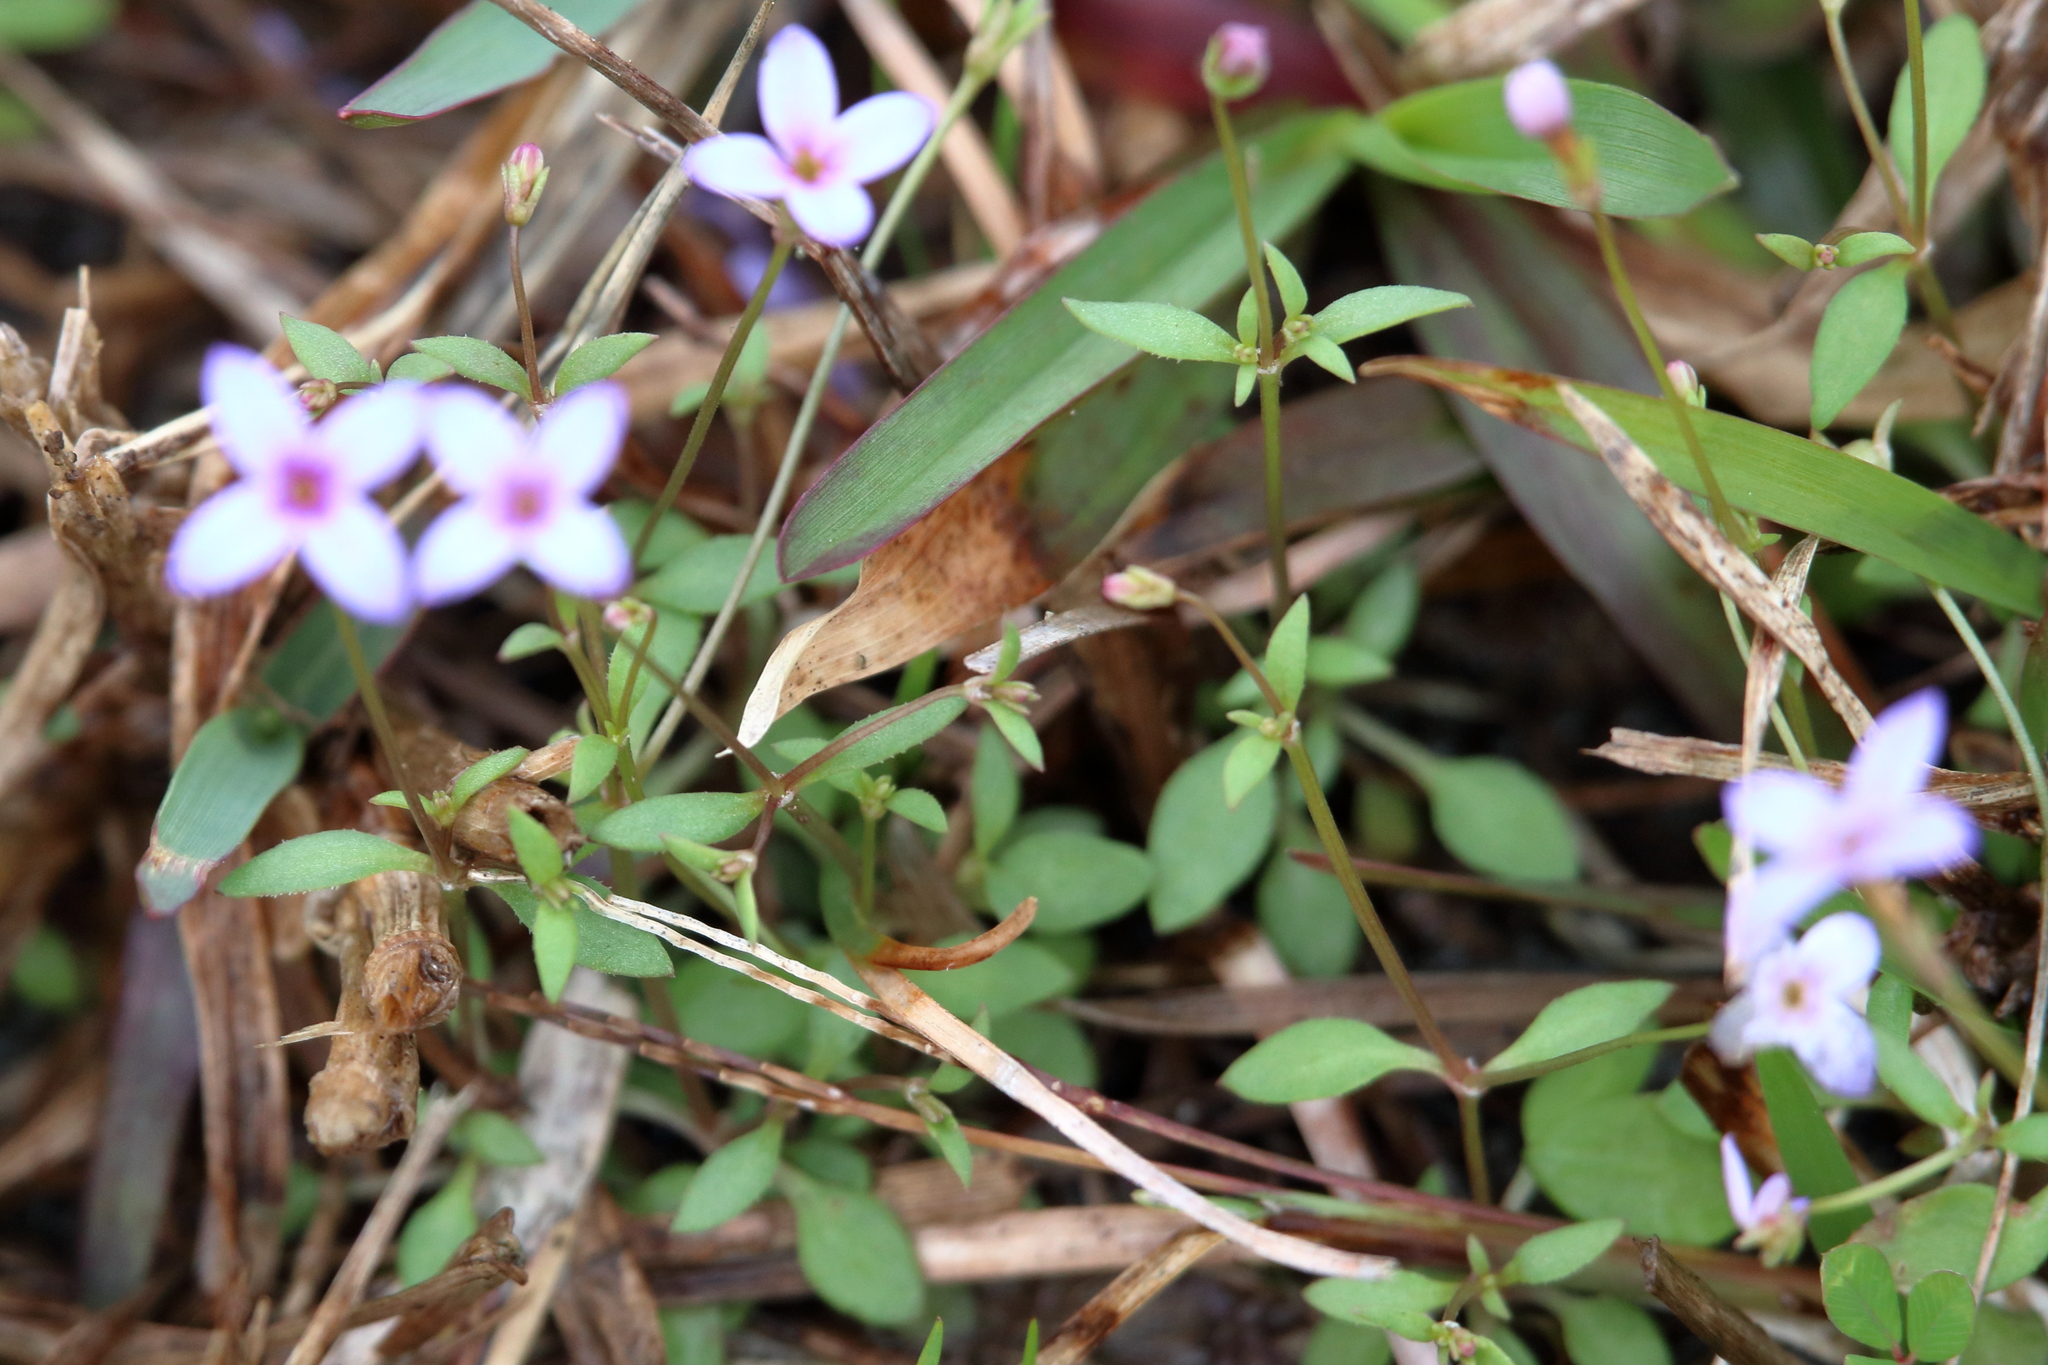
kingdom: Plantae
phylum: Tracheophyta
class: Magnoliopsida
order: Gentianales
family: Rubiaceae
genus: Houstonia
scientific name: Houstonia pusilla
